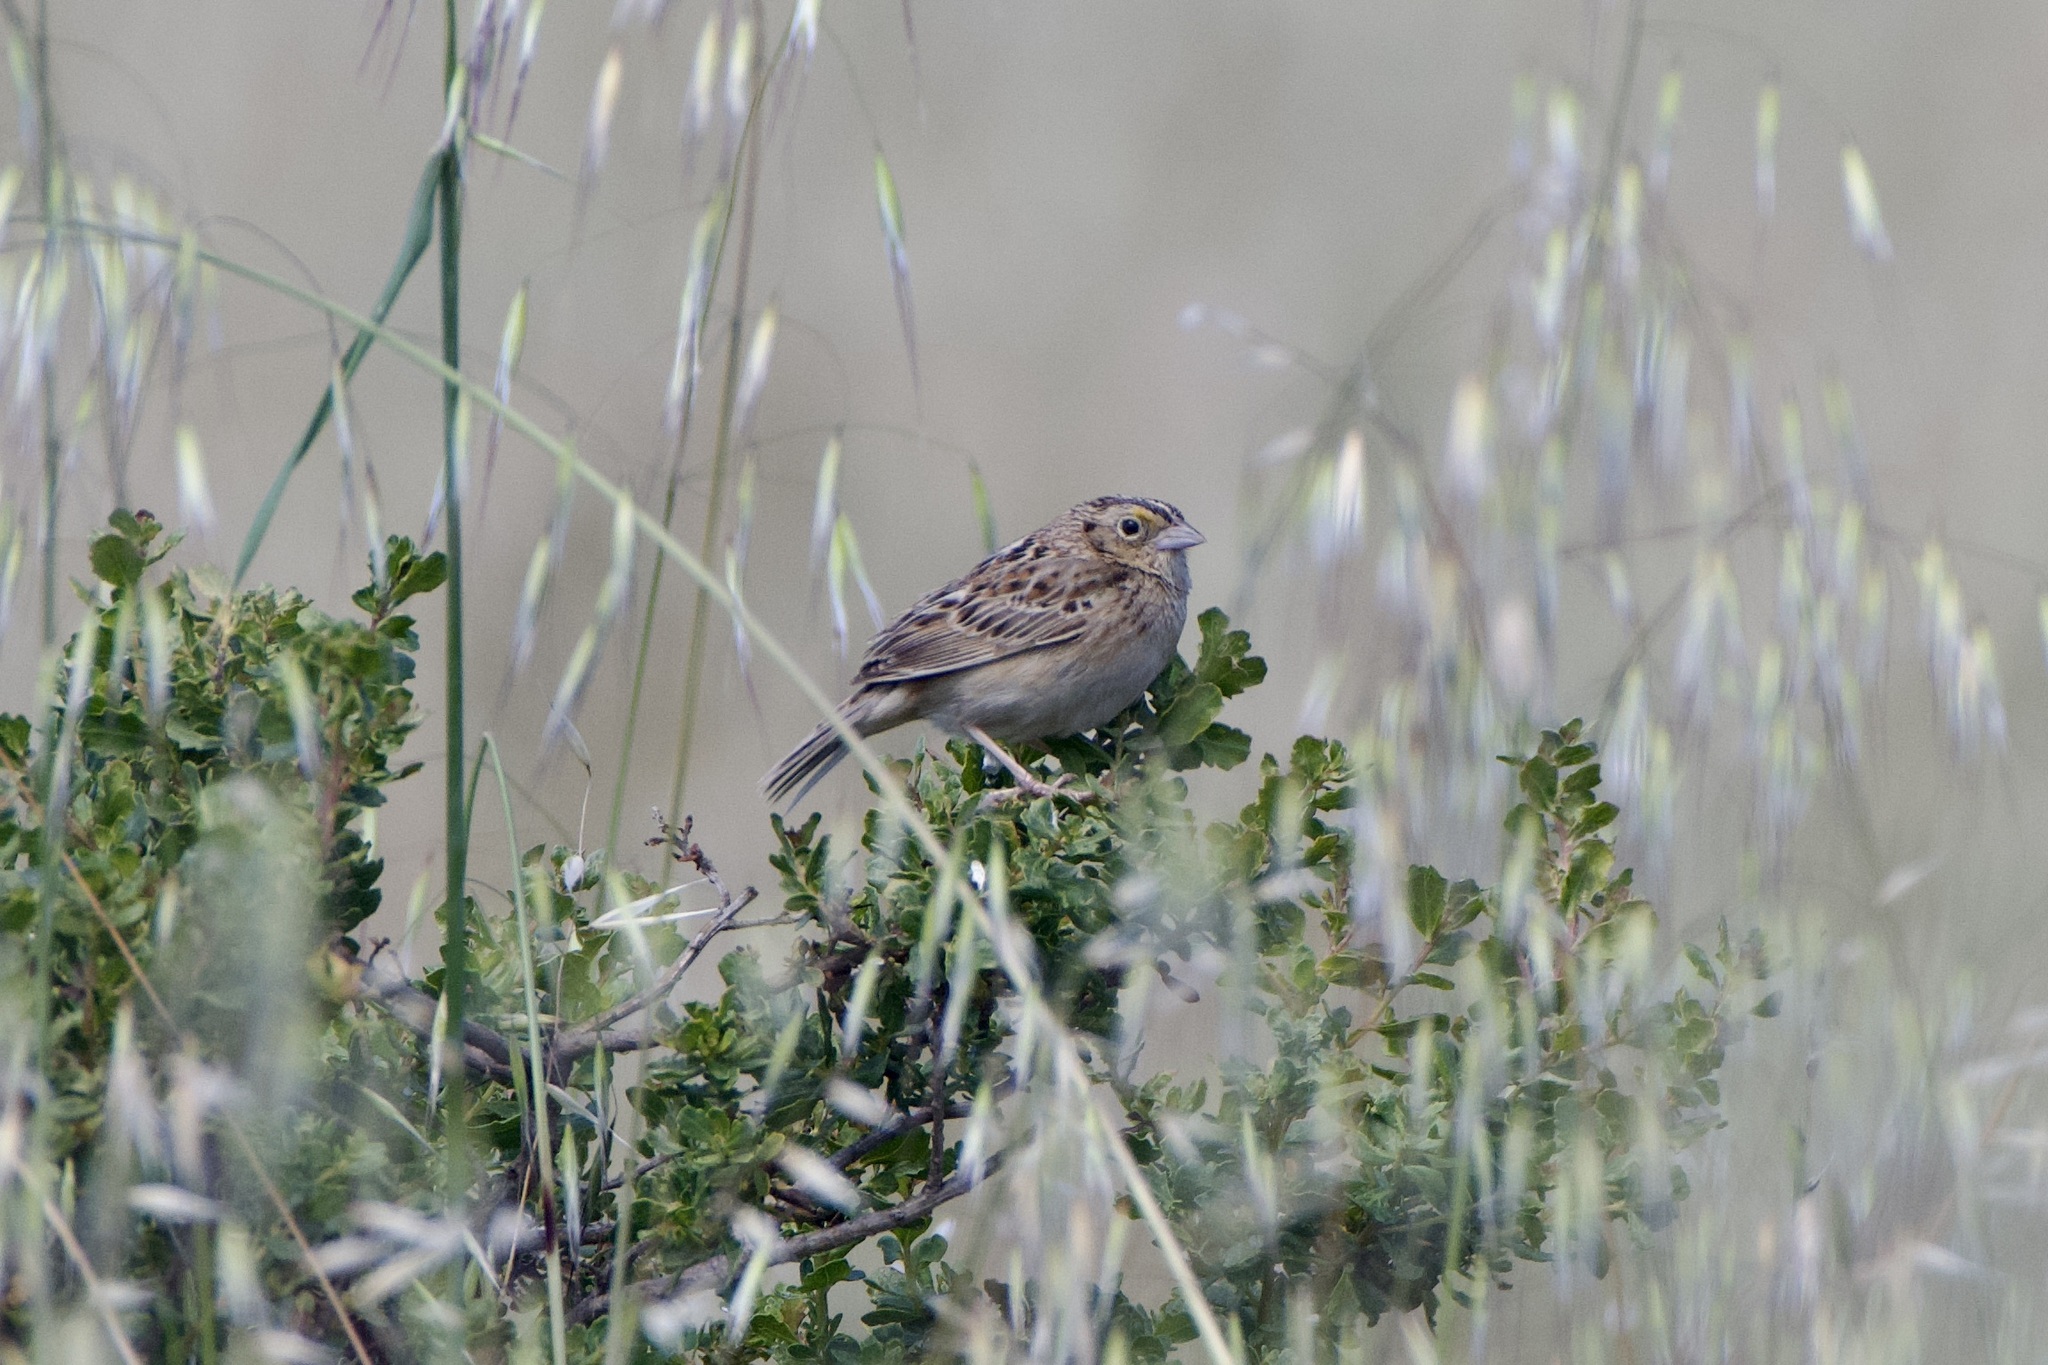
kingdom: Animalia
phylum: Chordata
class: Aves
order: Passeriformes
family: Passerellidae
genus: Ammodramus
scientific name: Ammodramus savannarum
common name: Grasshopper sparrow
